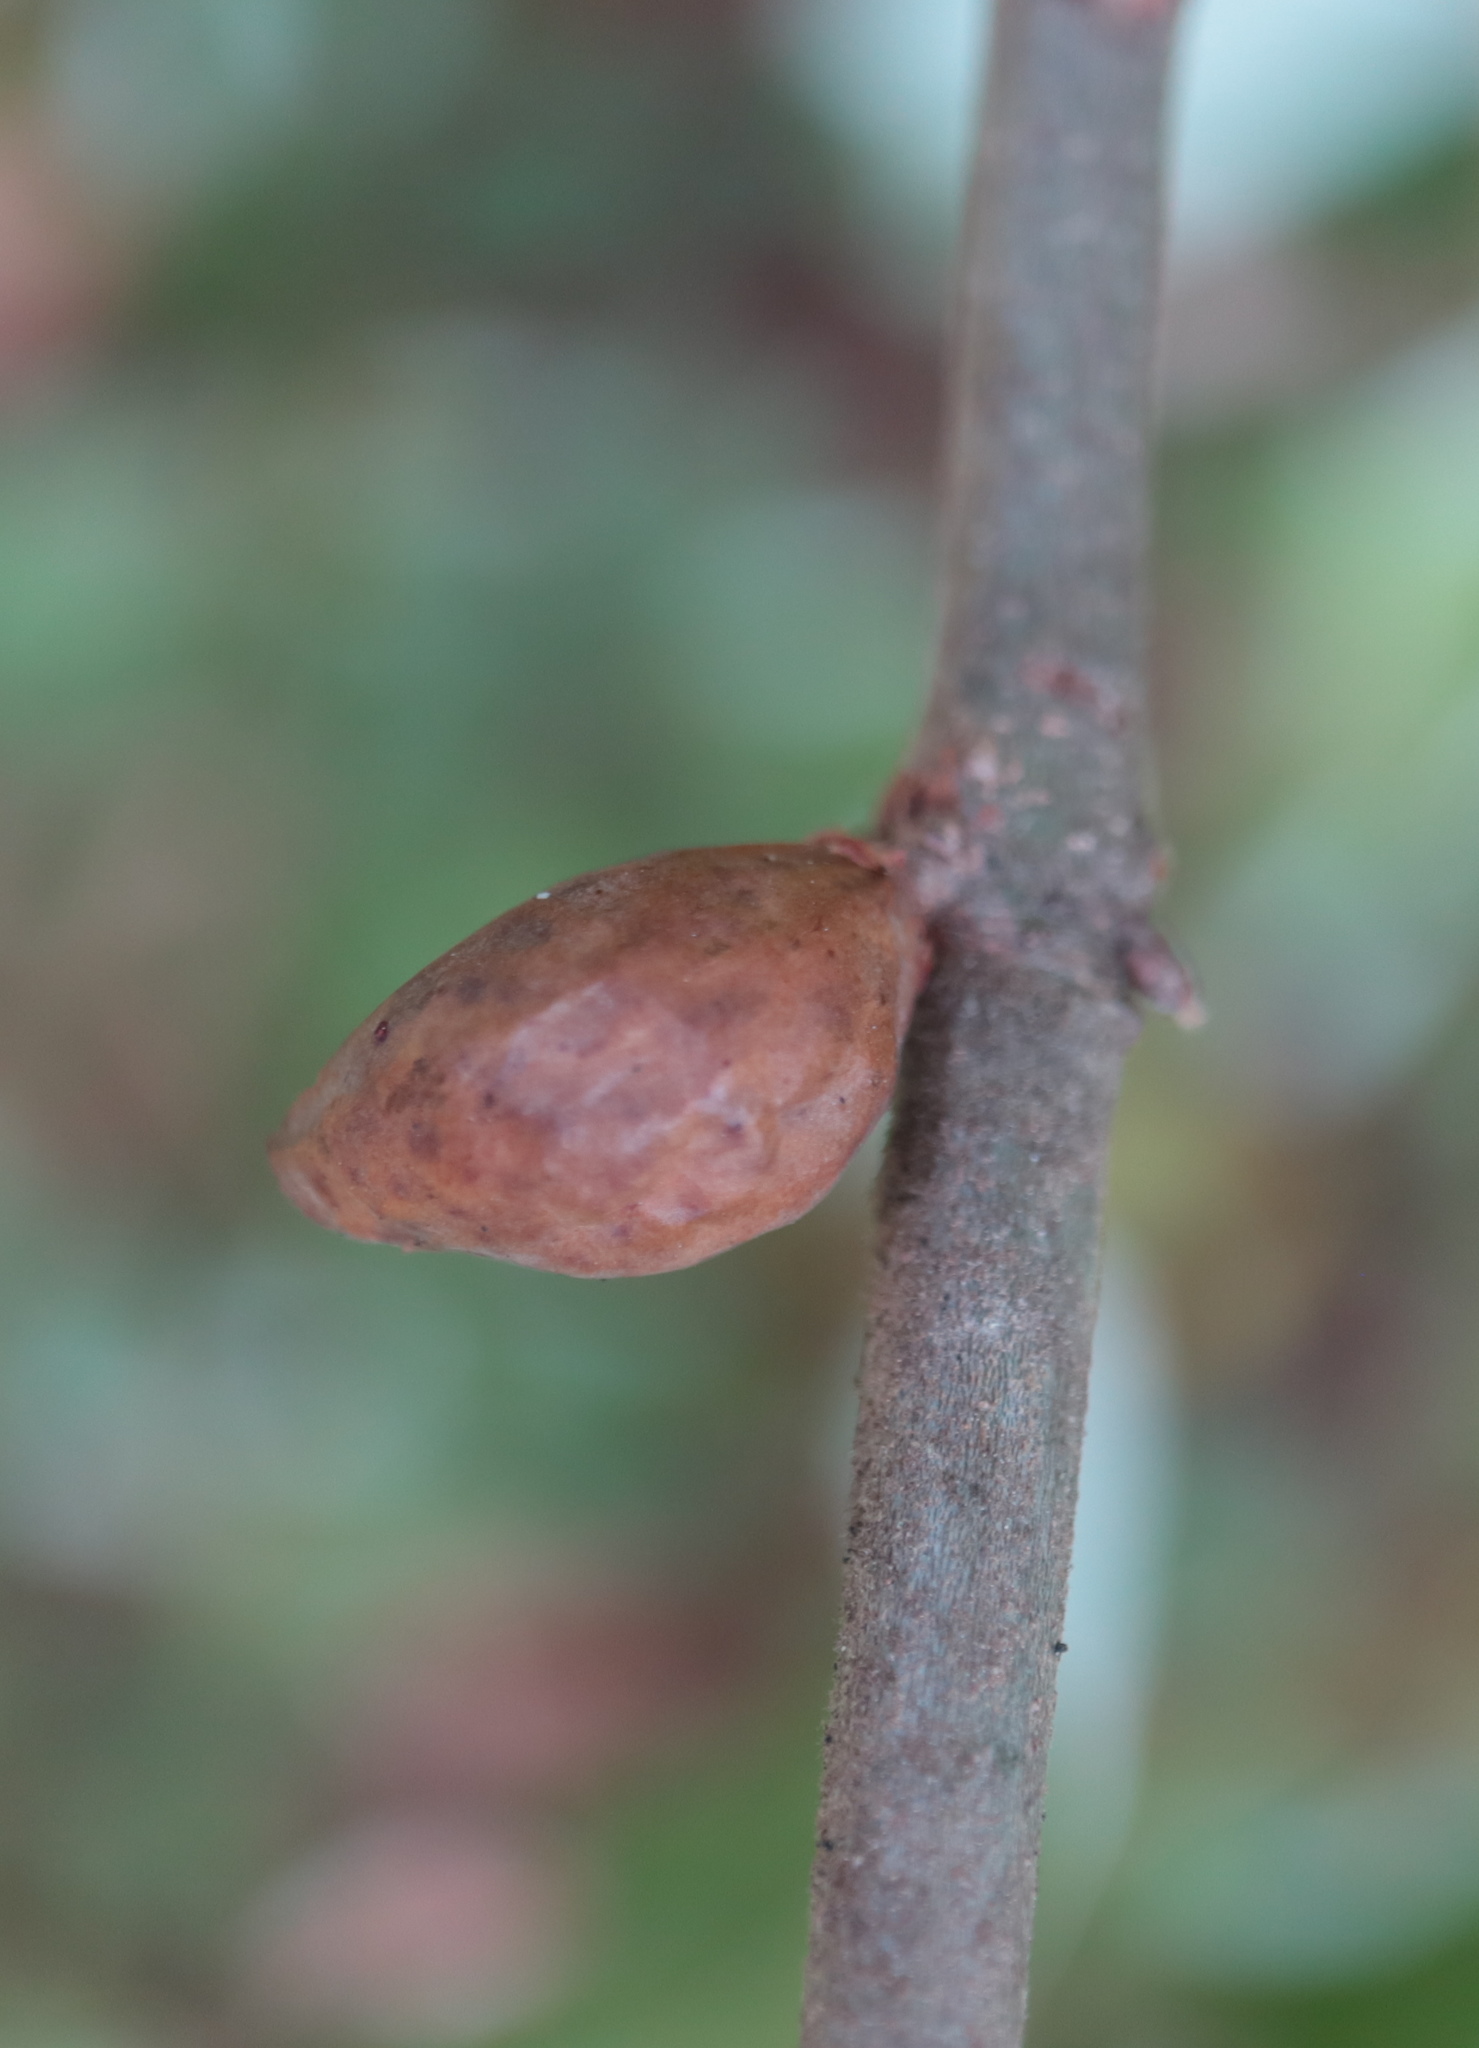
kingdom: Animalia
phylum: Arthropoda
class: Insecta
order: Hymenoptera
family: Cynipidae
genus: Amphibolips
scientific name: Amphibolips
